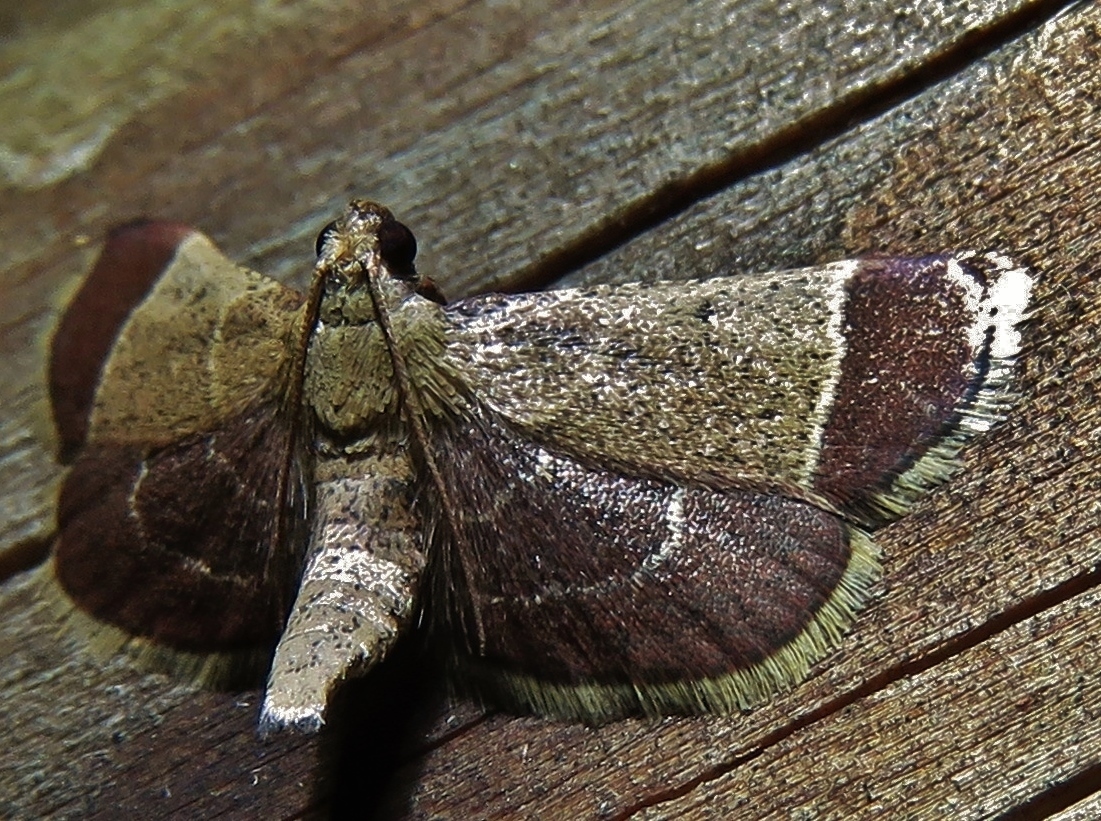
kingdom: Animalia
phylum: Arthropoda
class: Insecta
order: Lepidoptera
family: Pyralidae
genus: Hypsopygia
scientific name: Hypsopygia amoenalis
